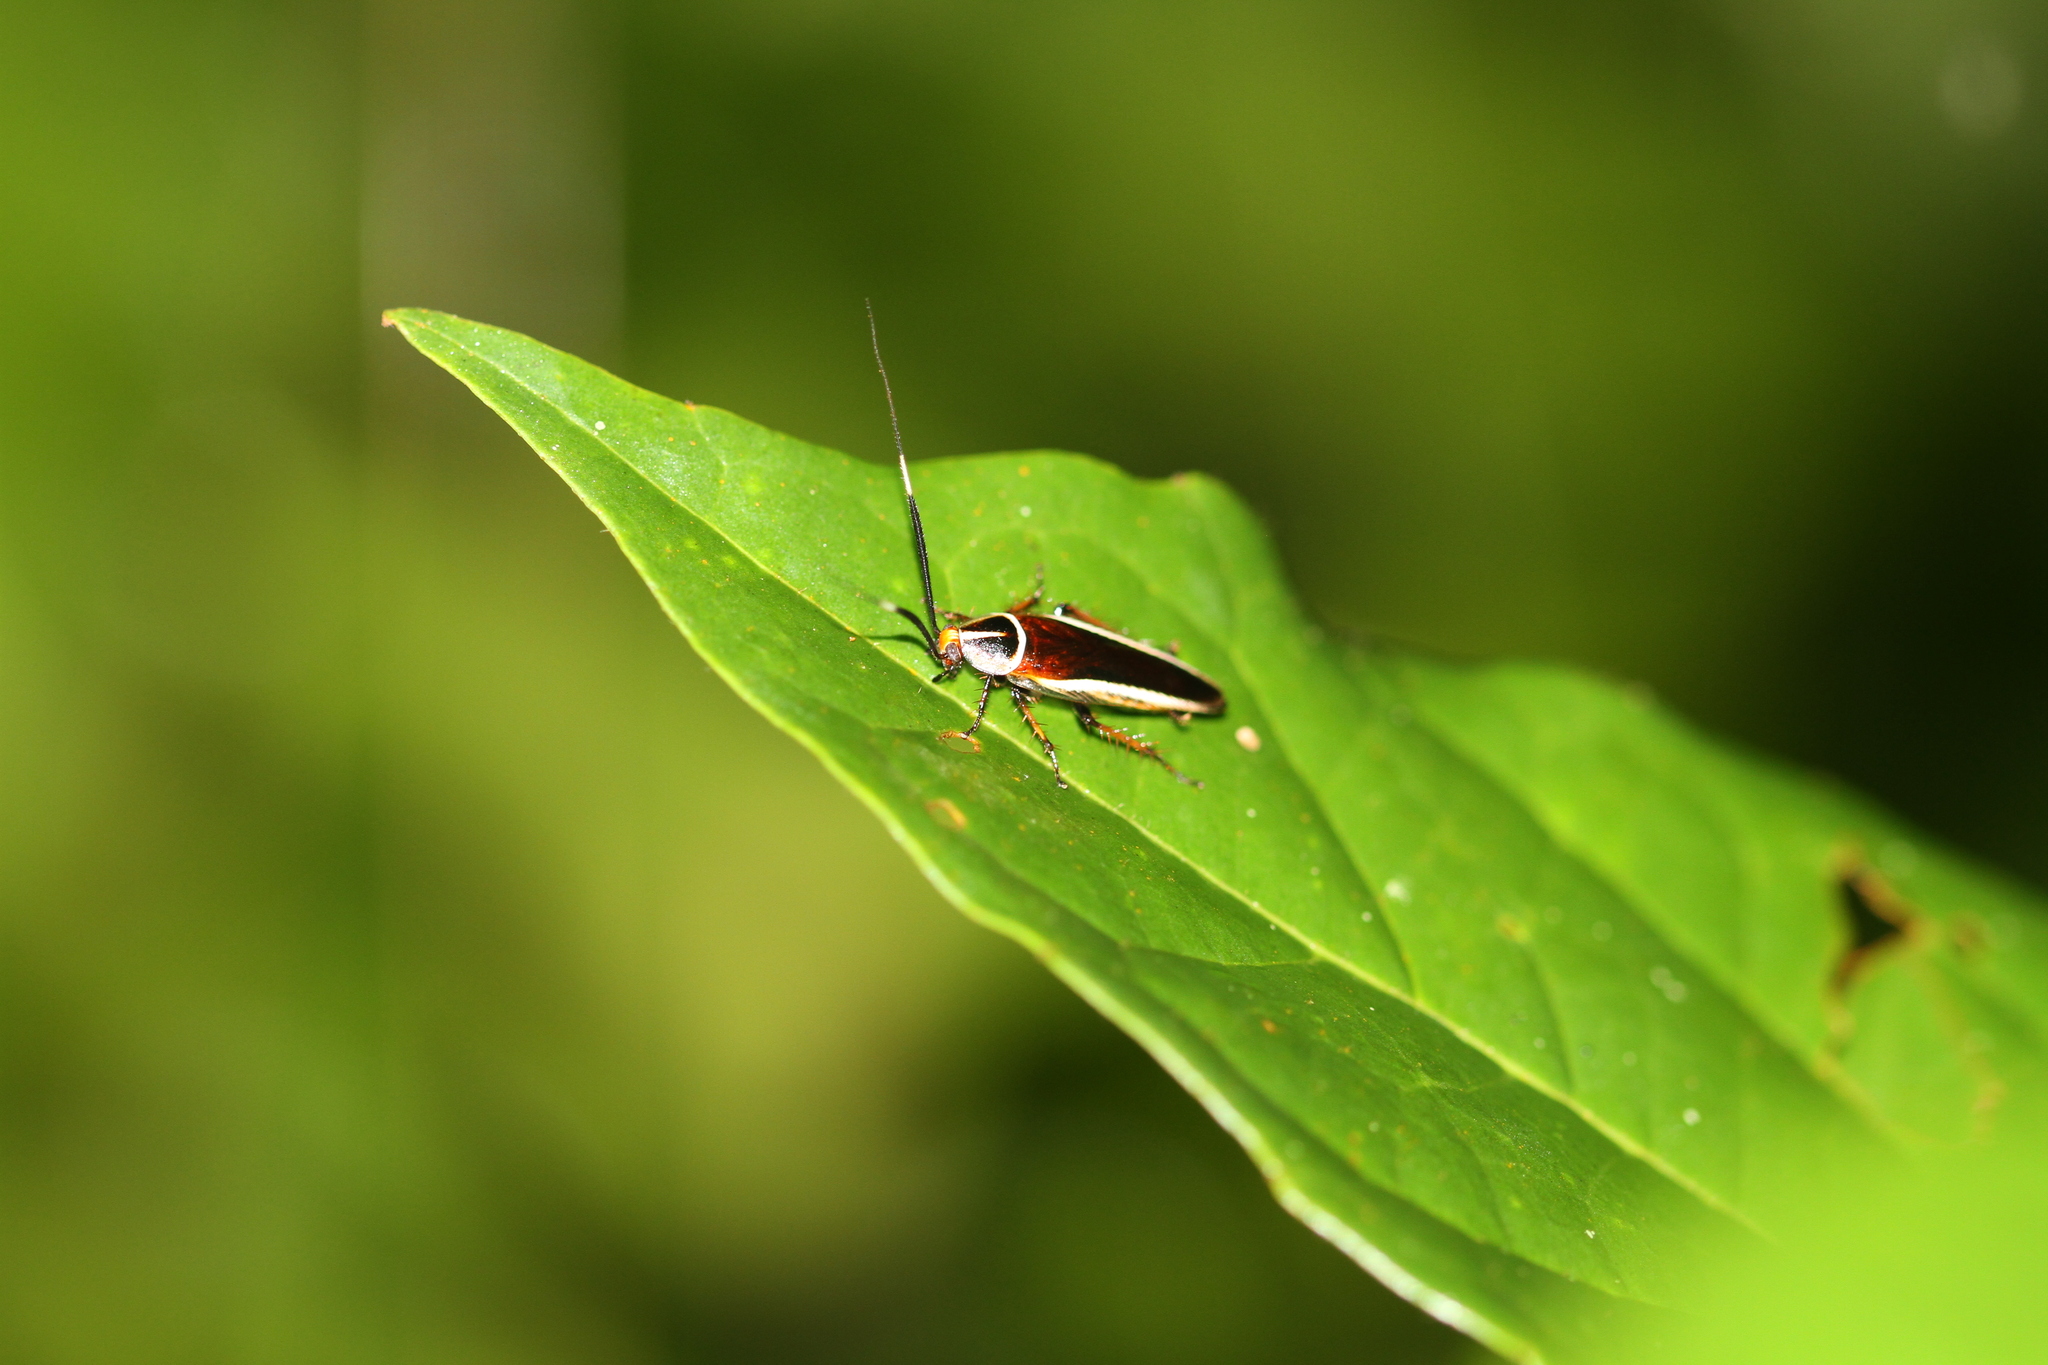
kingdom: Animalia
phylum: Arthropoda
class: Insecta
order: Blattodea
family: Ectobiidae
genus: Hemithyrsocera
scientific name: Hemithyrsocera histrio
